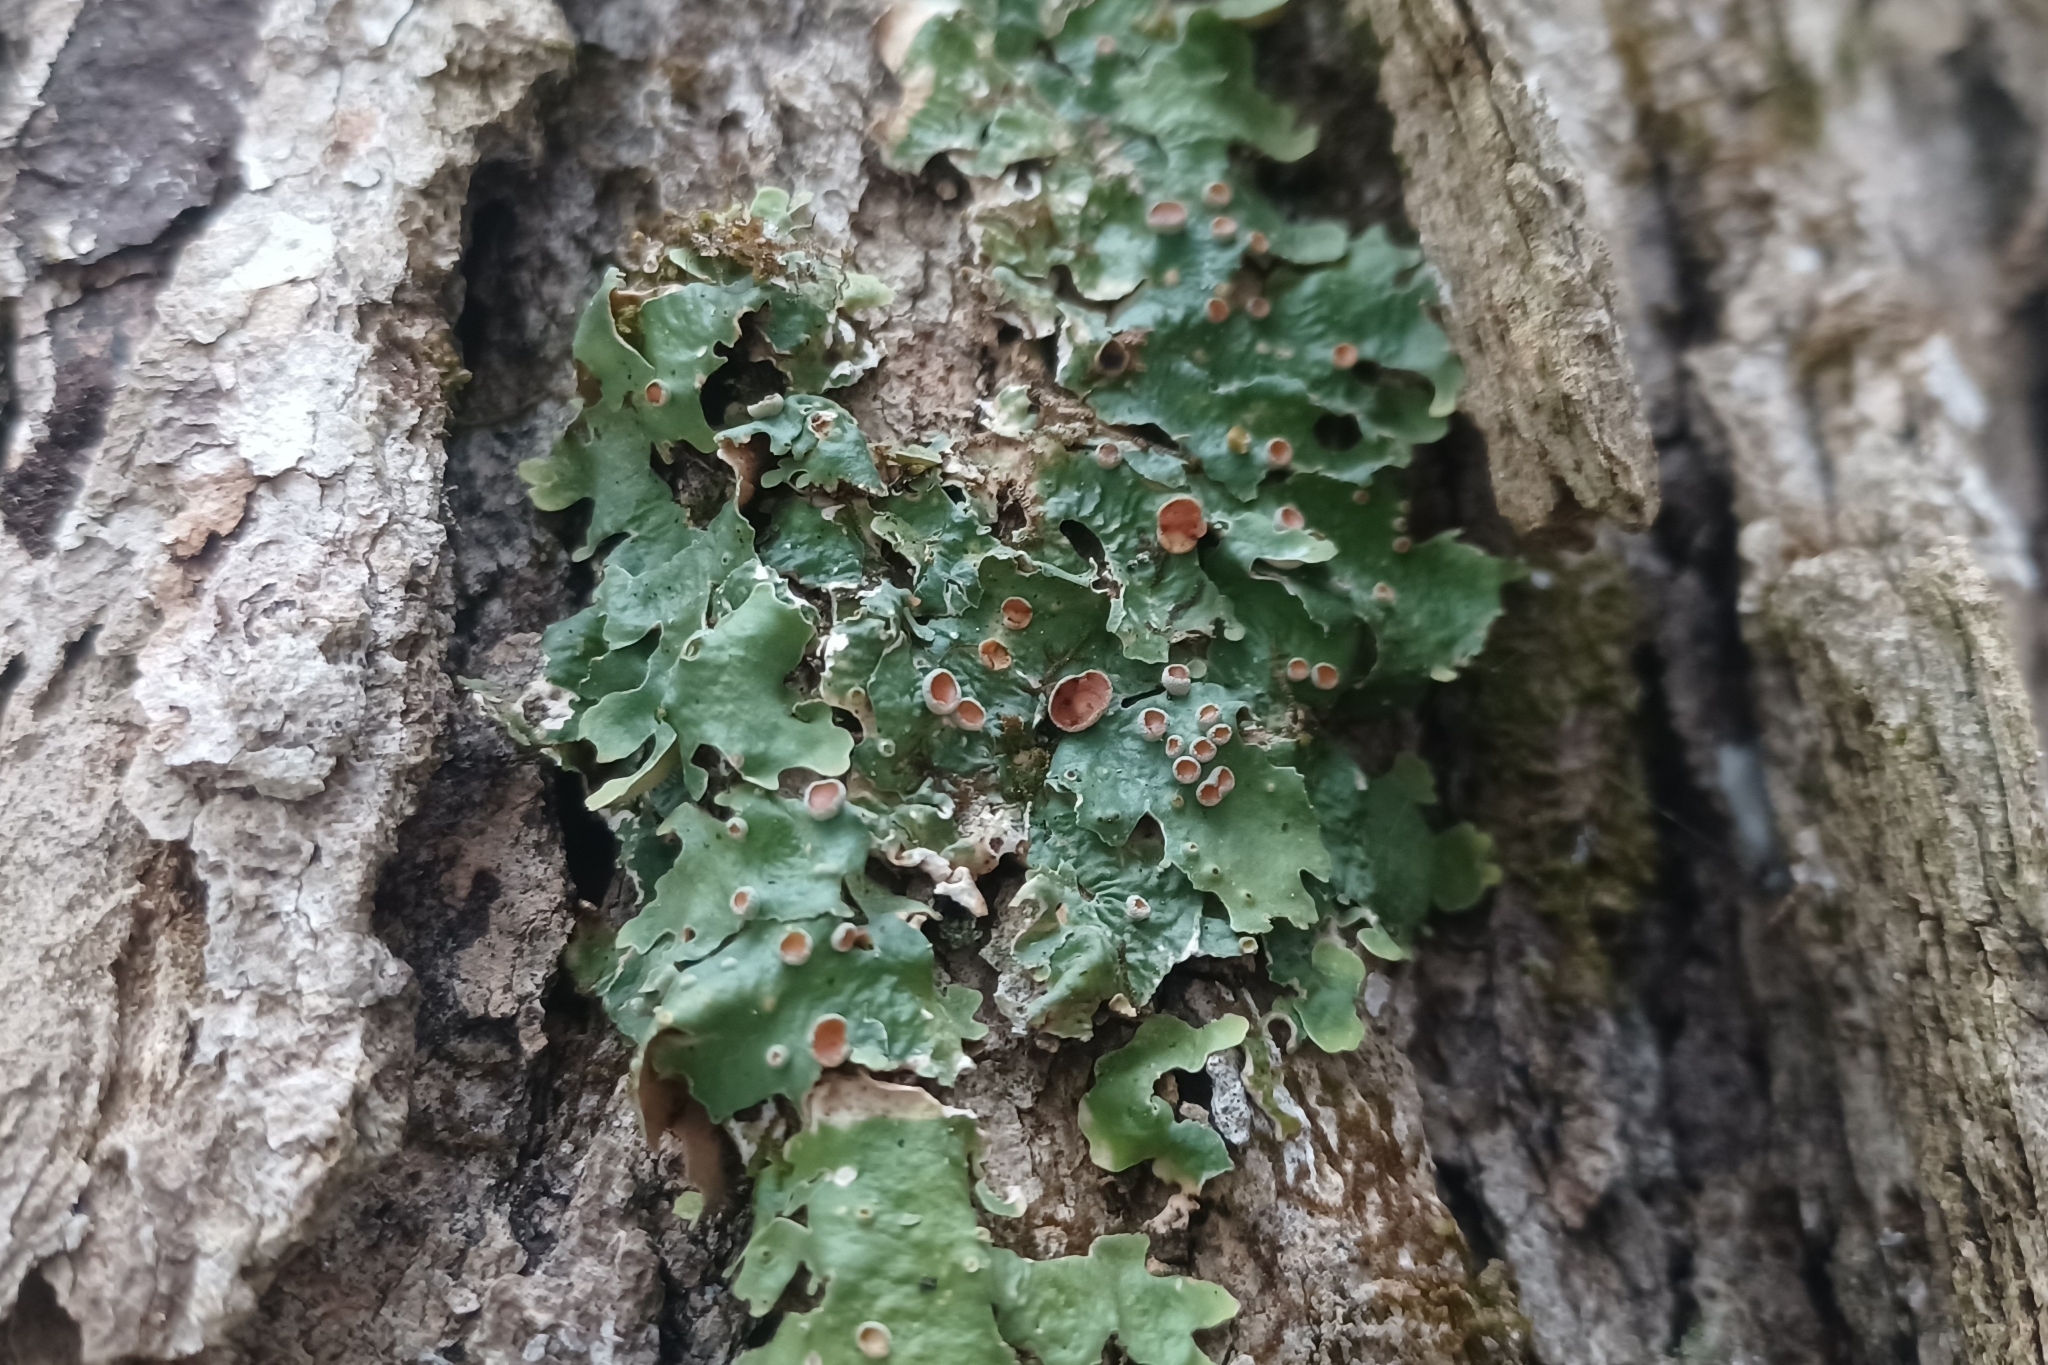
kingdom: Fungi
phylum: Ascomycota
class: Lecanoromycetes
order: Peltigerales
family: Lobariaceae
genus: Ricasolia
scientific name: Ricasolia quercizans
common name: Smooth lungwort
